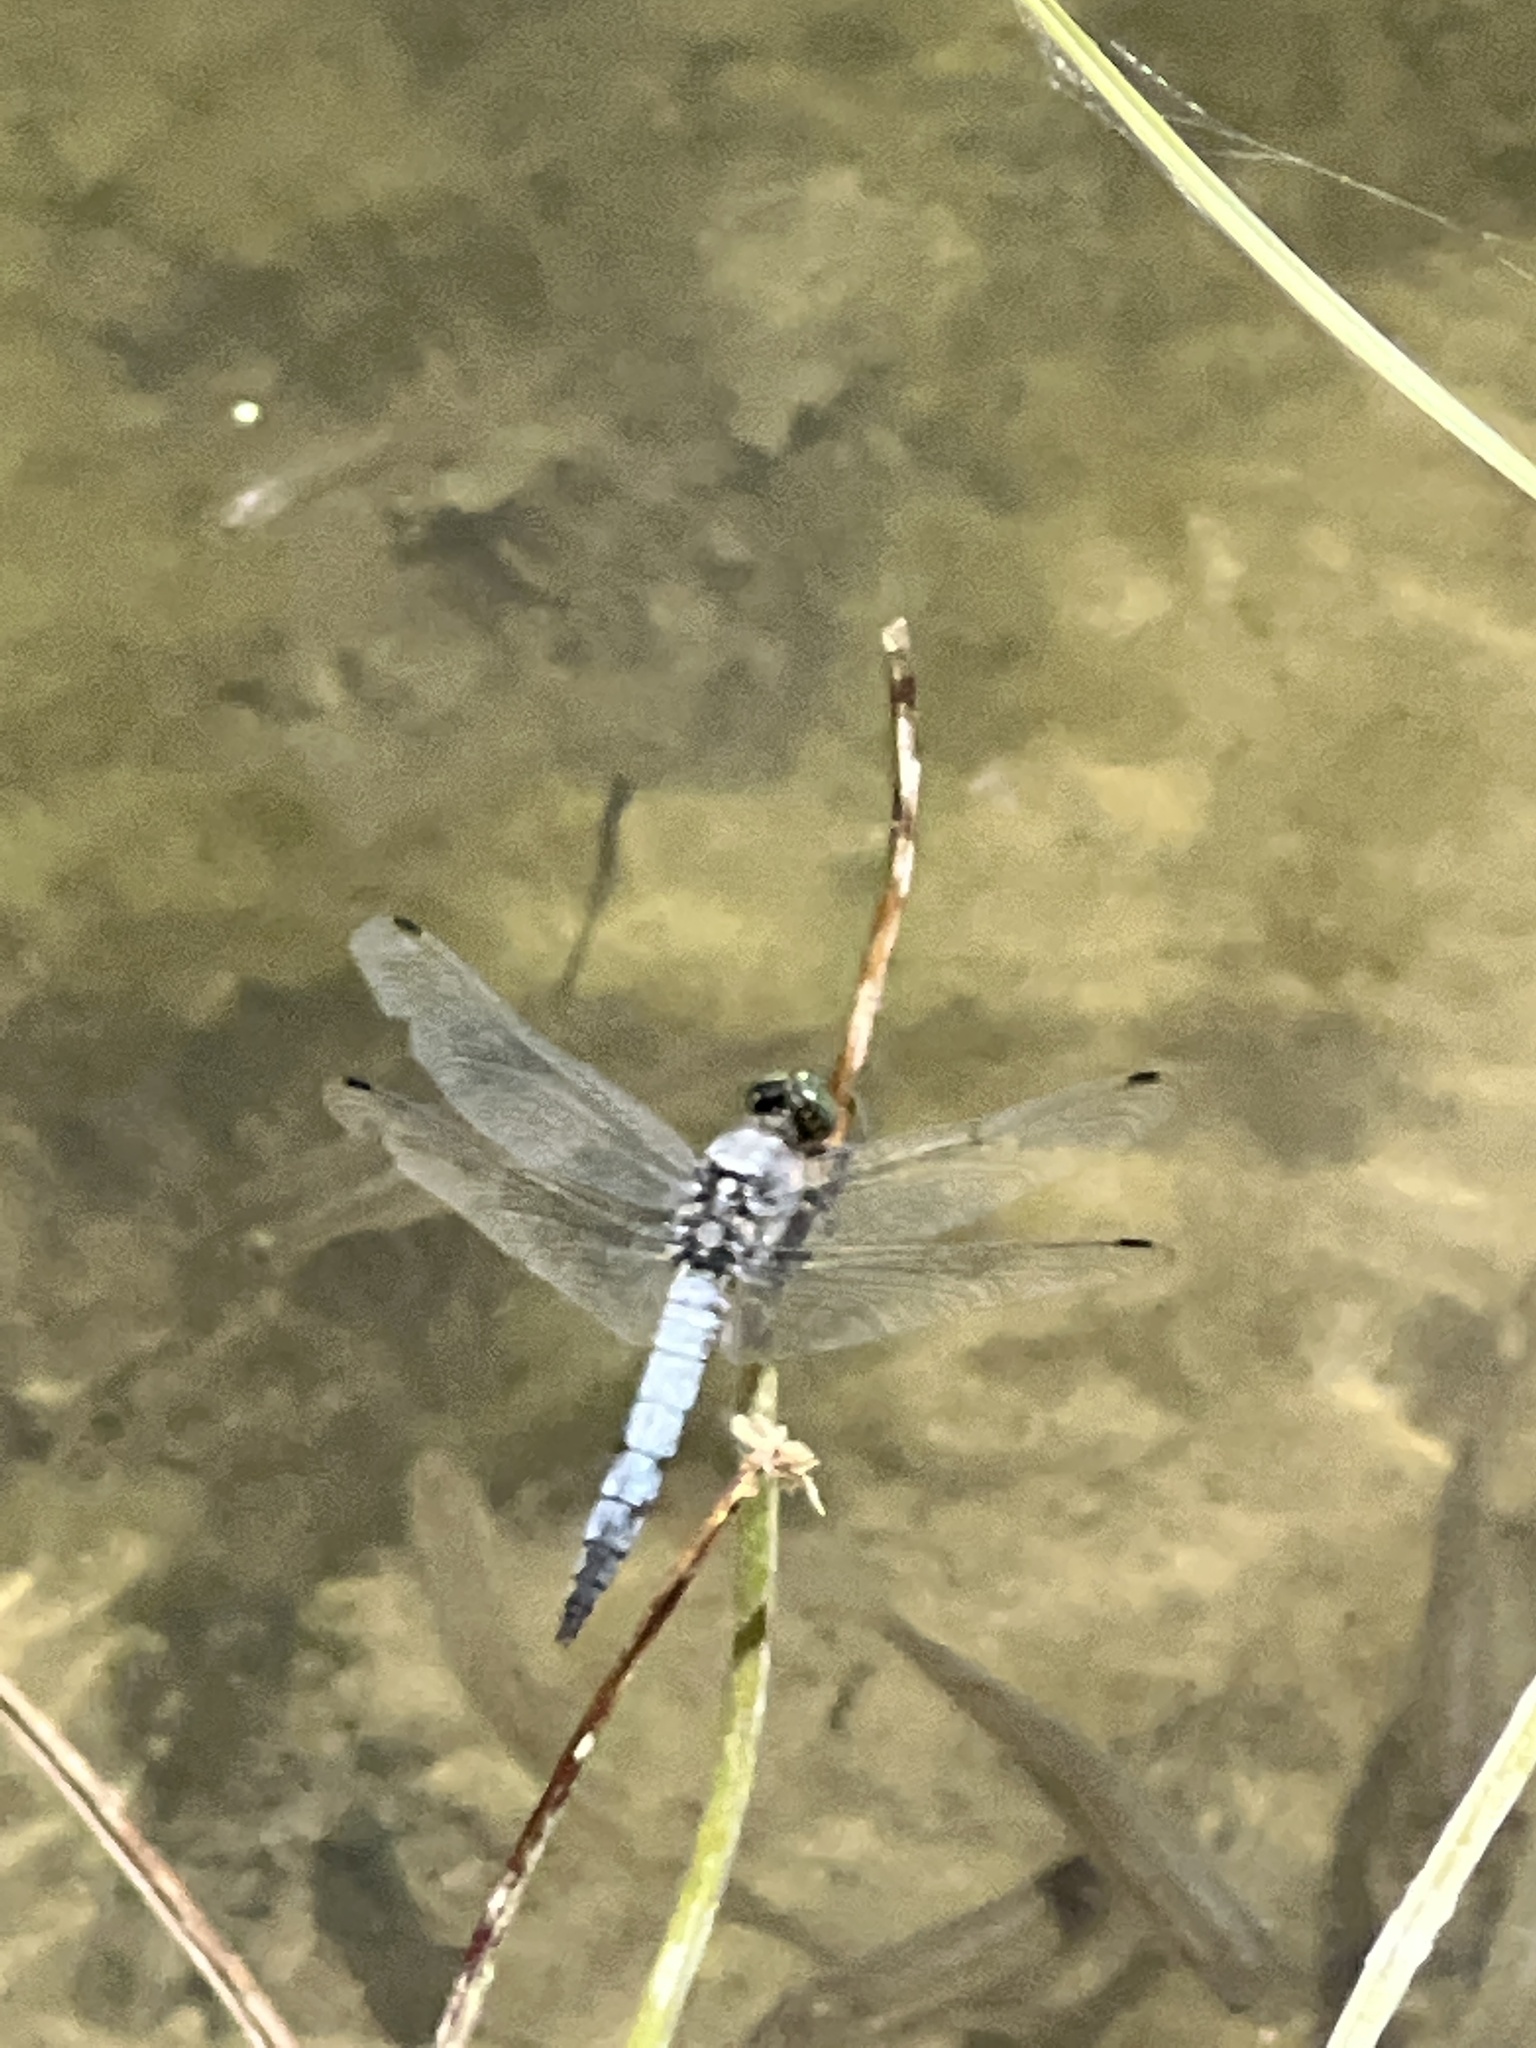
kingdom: Animalia
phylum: Arthropoda
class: Insecta
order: Odonata
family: Libellulidae
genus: Orthetrum
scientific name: Orthetrum cancellatum
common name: Black-tailed skimmer
